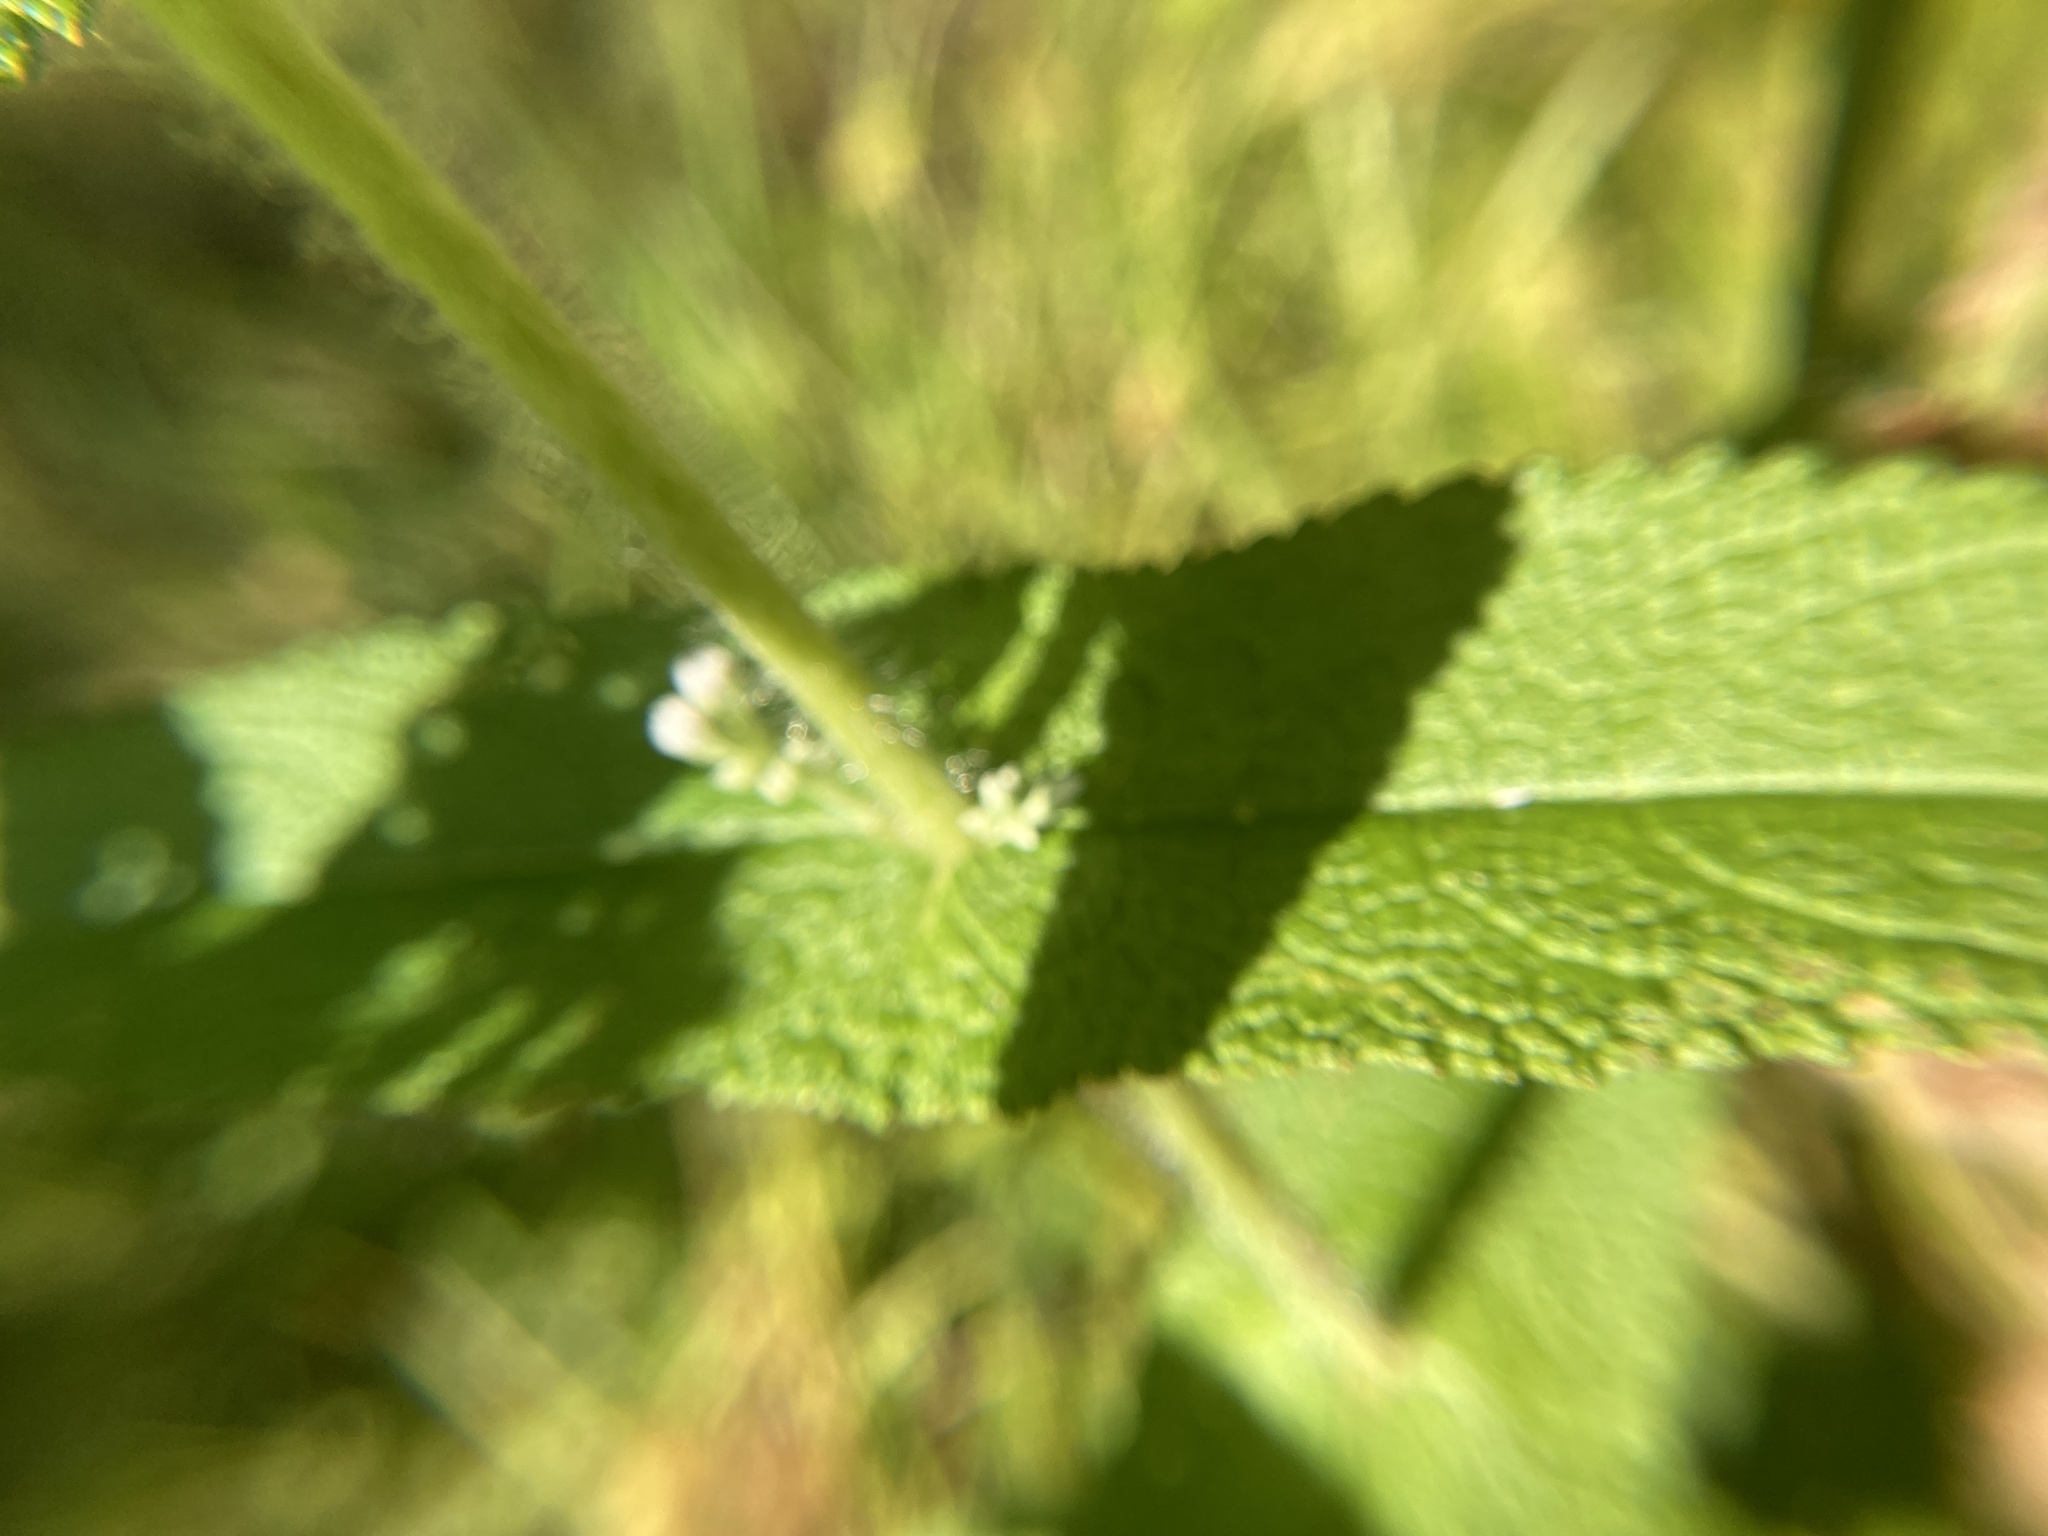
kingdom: Plantae
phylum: Tracheophyta
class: Magnoliopsida
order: Asterales
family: Asteraceae
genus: Eupatorium
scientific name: Eupatorium perfoliatum
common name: Boneset
